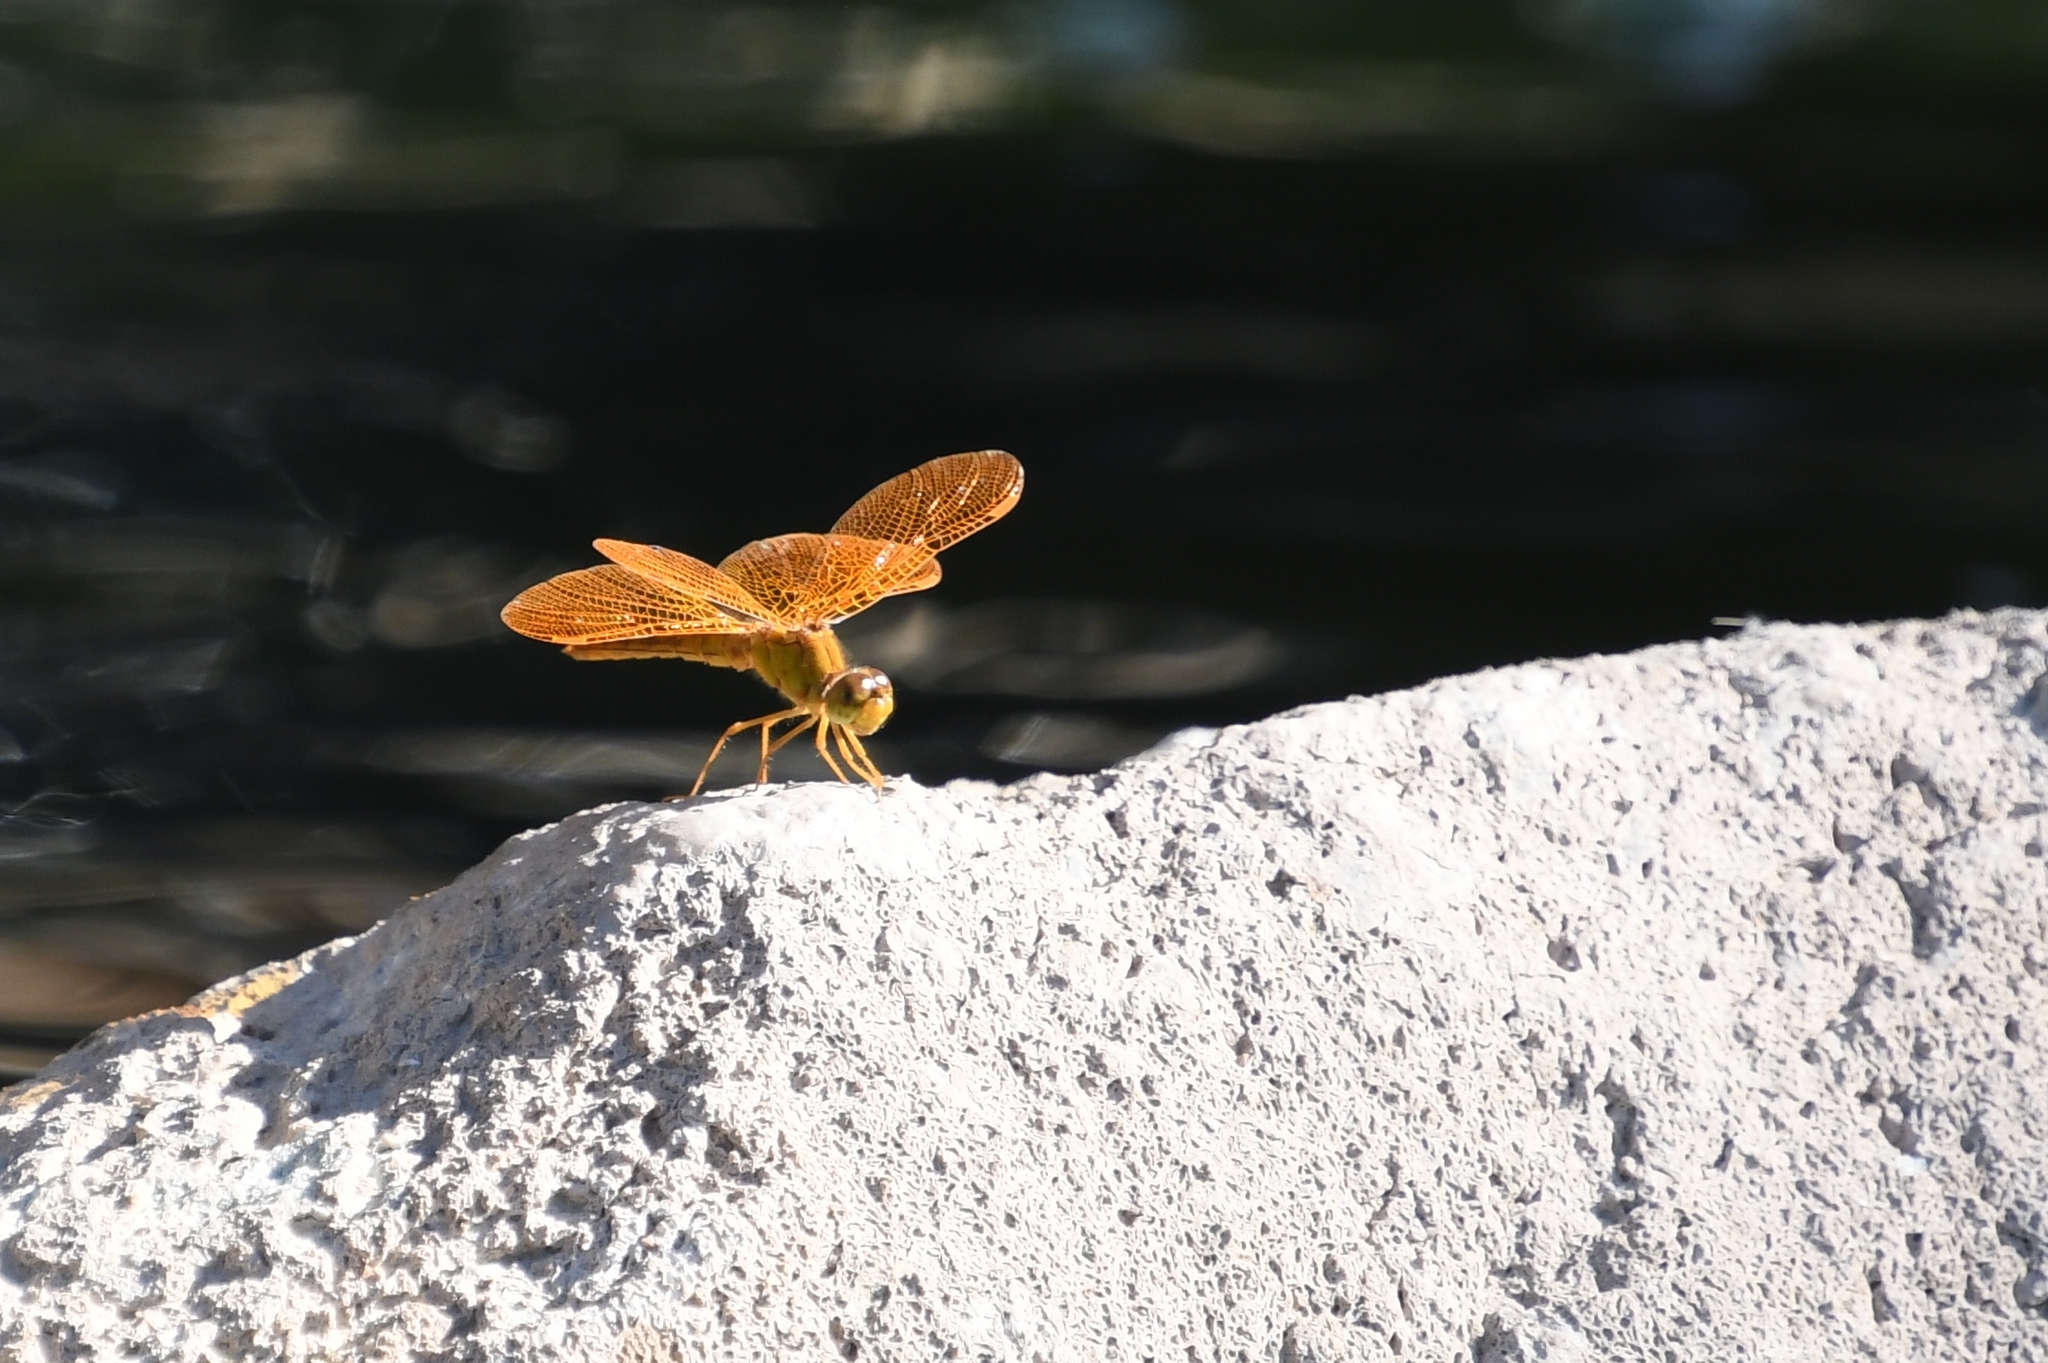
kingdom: Animalia
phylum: Arthropoda
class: Insecta
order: Odonata
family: Libellulidae
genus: Perithemis
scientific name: Perithemis intensa
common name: Mexican amberwing
